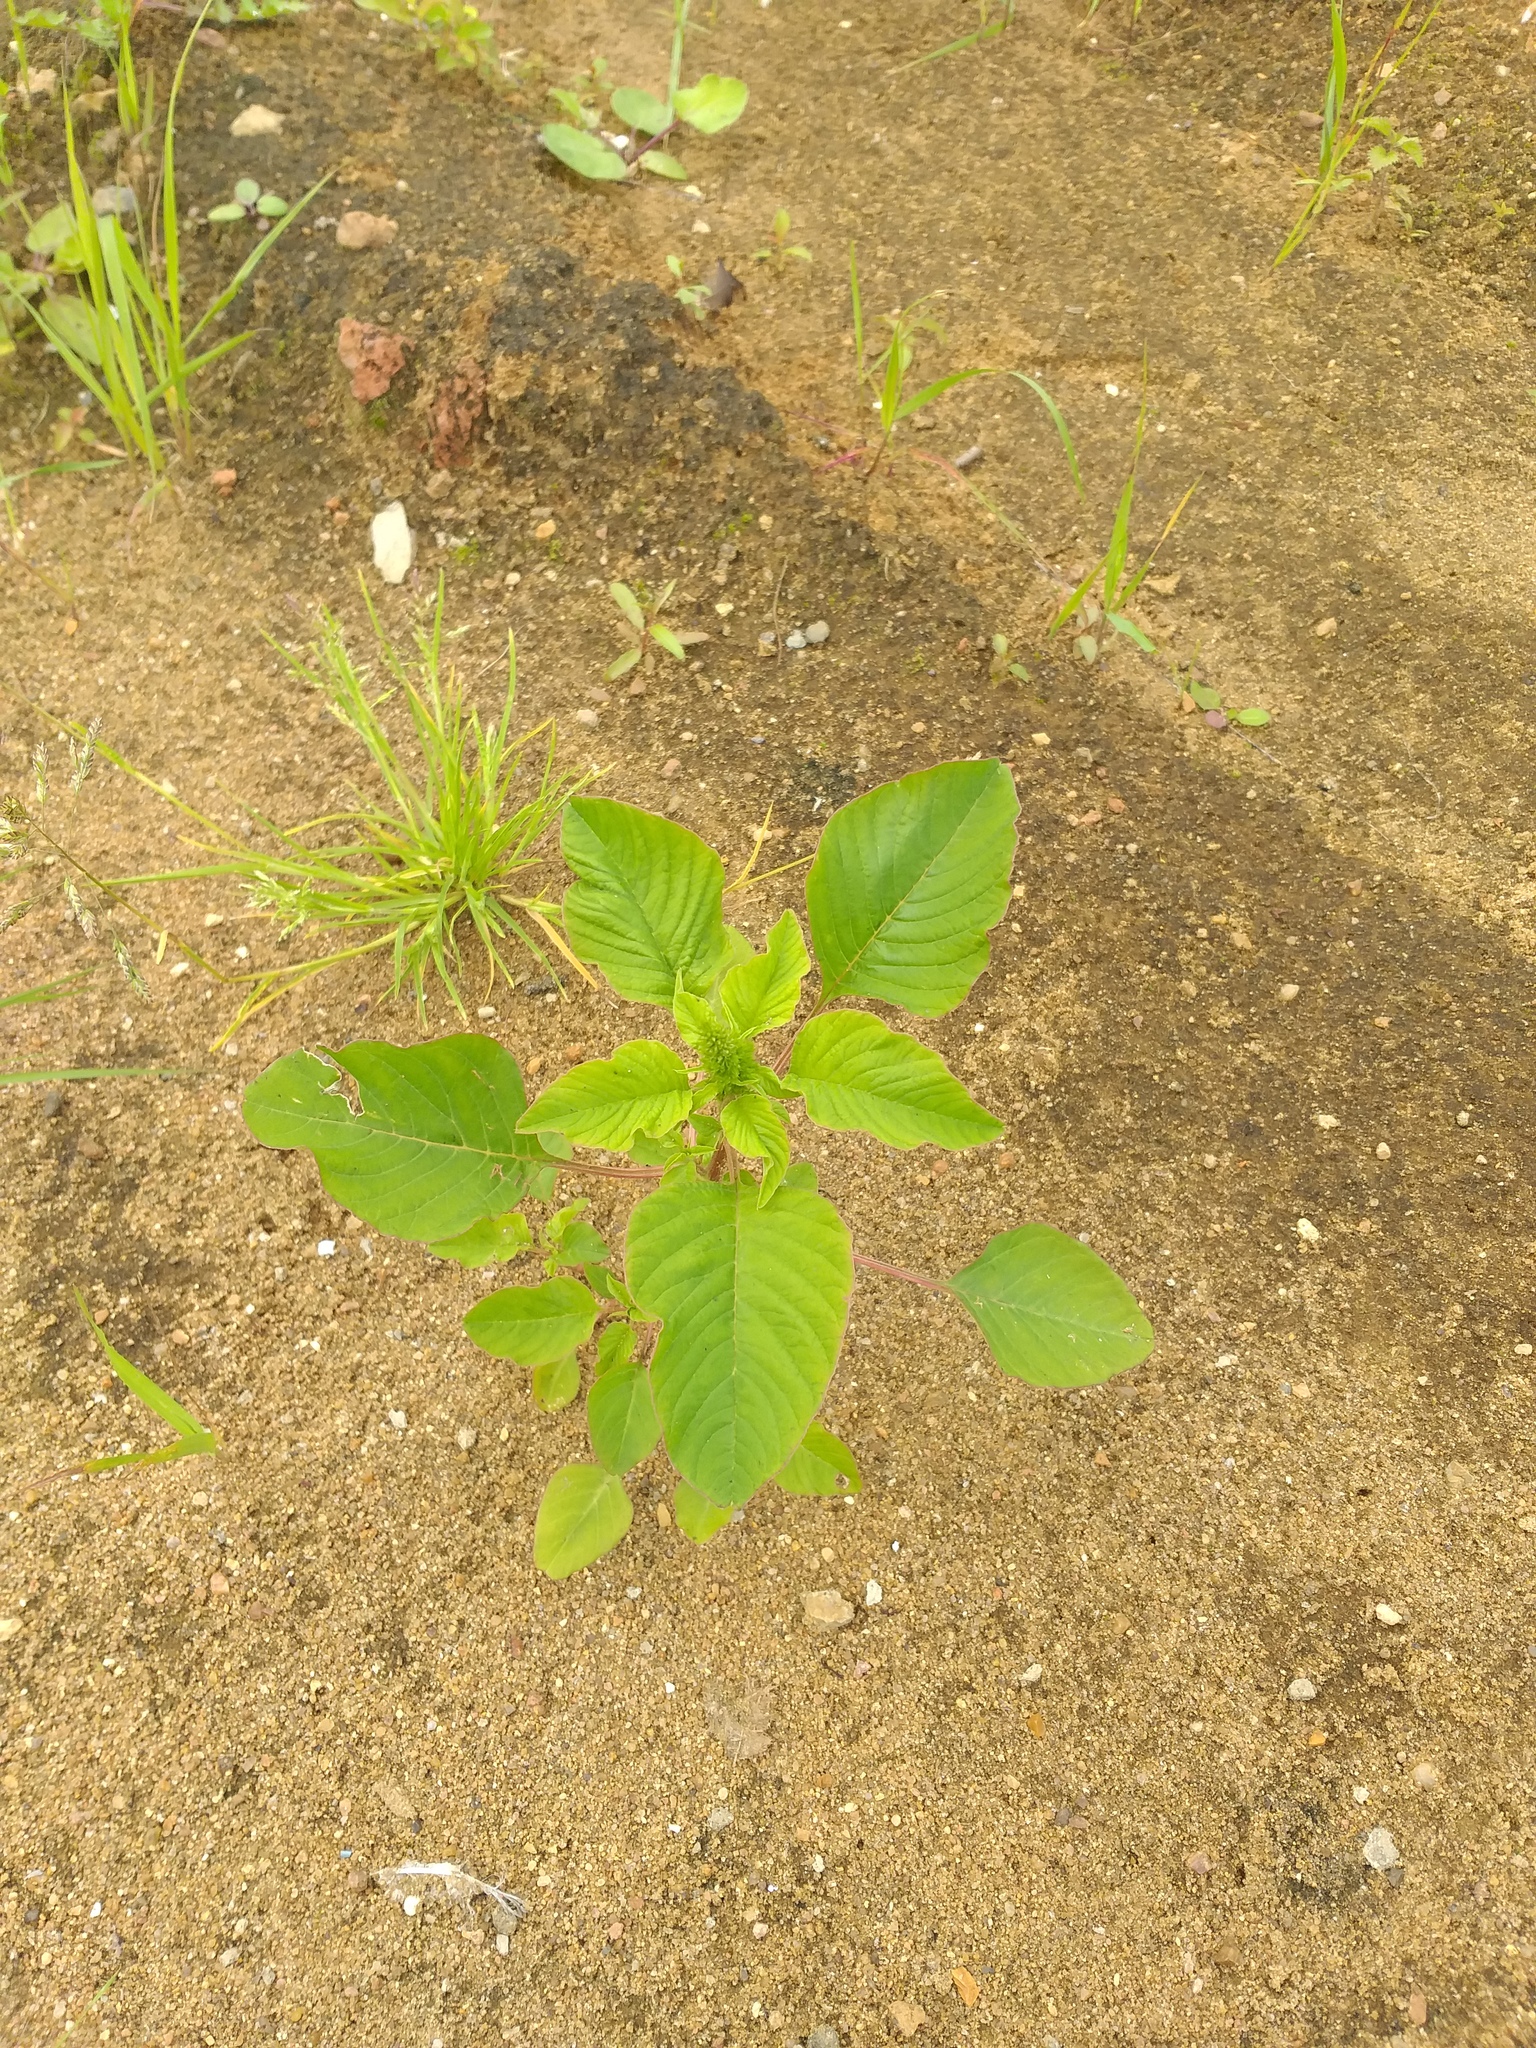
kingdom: Plantae
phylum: Tracheophyta
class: Magnoliopsida
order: Caryophyllales
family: Amaranthaceae
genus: Amaranthus
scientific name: Amaranthus retroflexus
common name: Redroot amaranth
